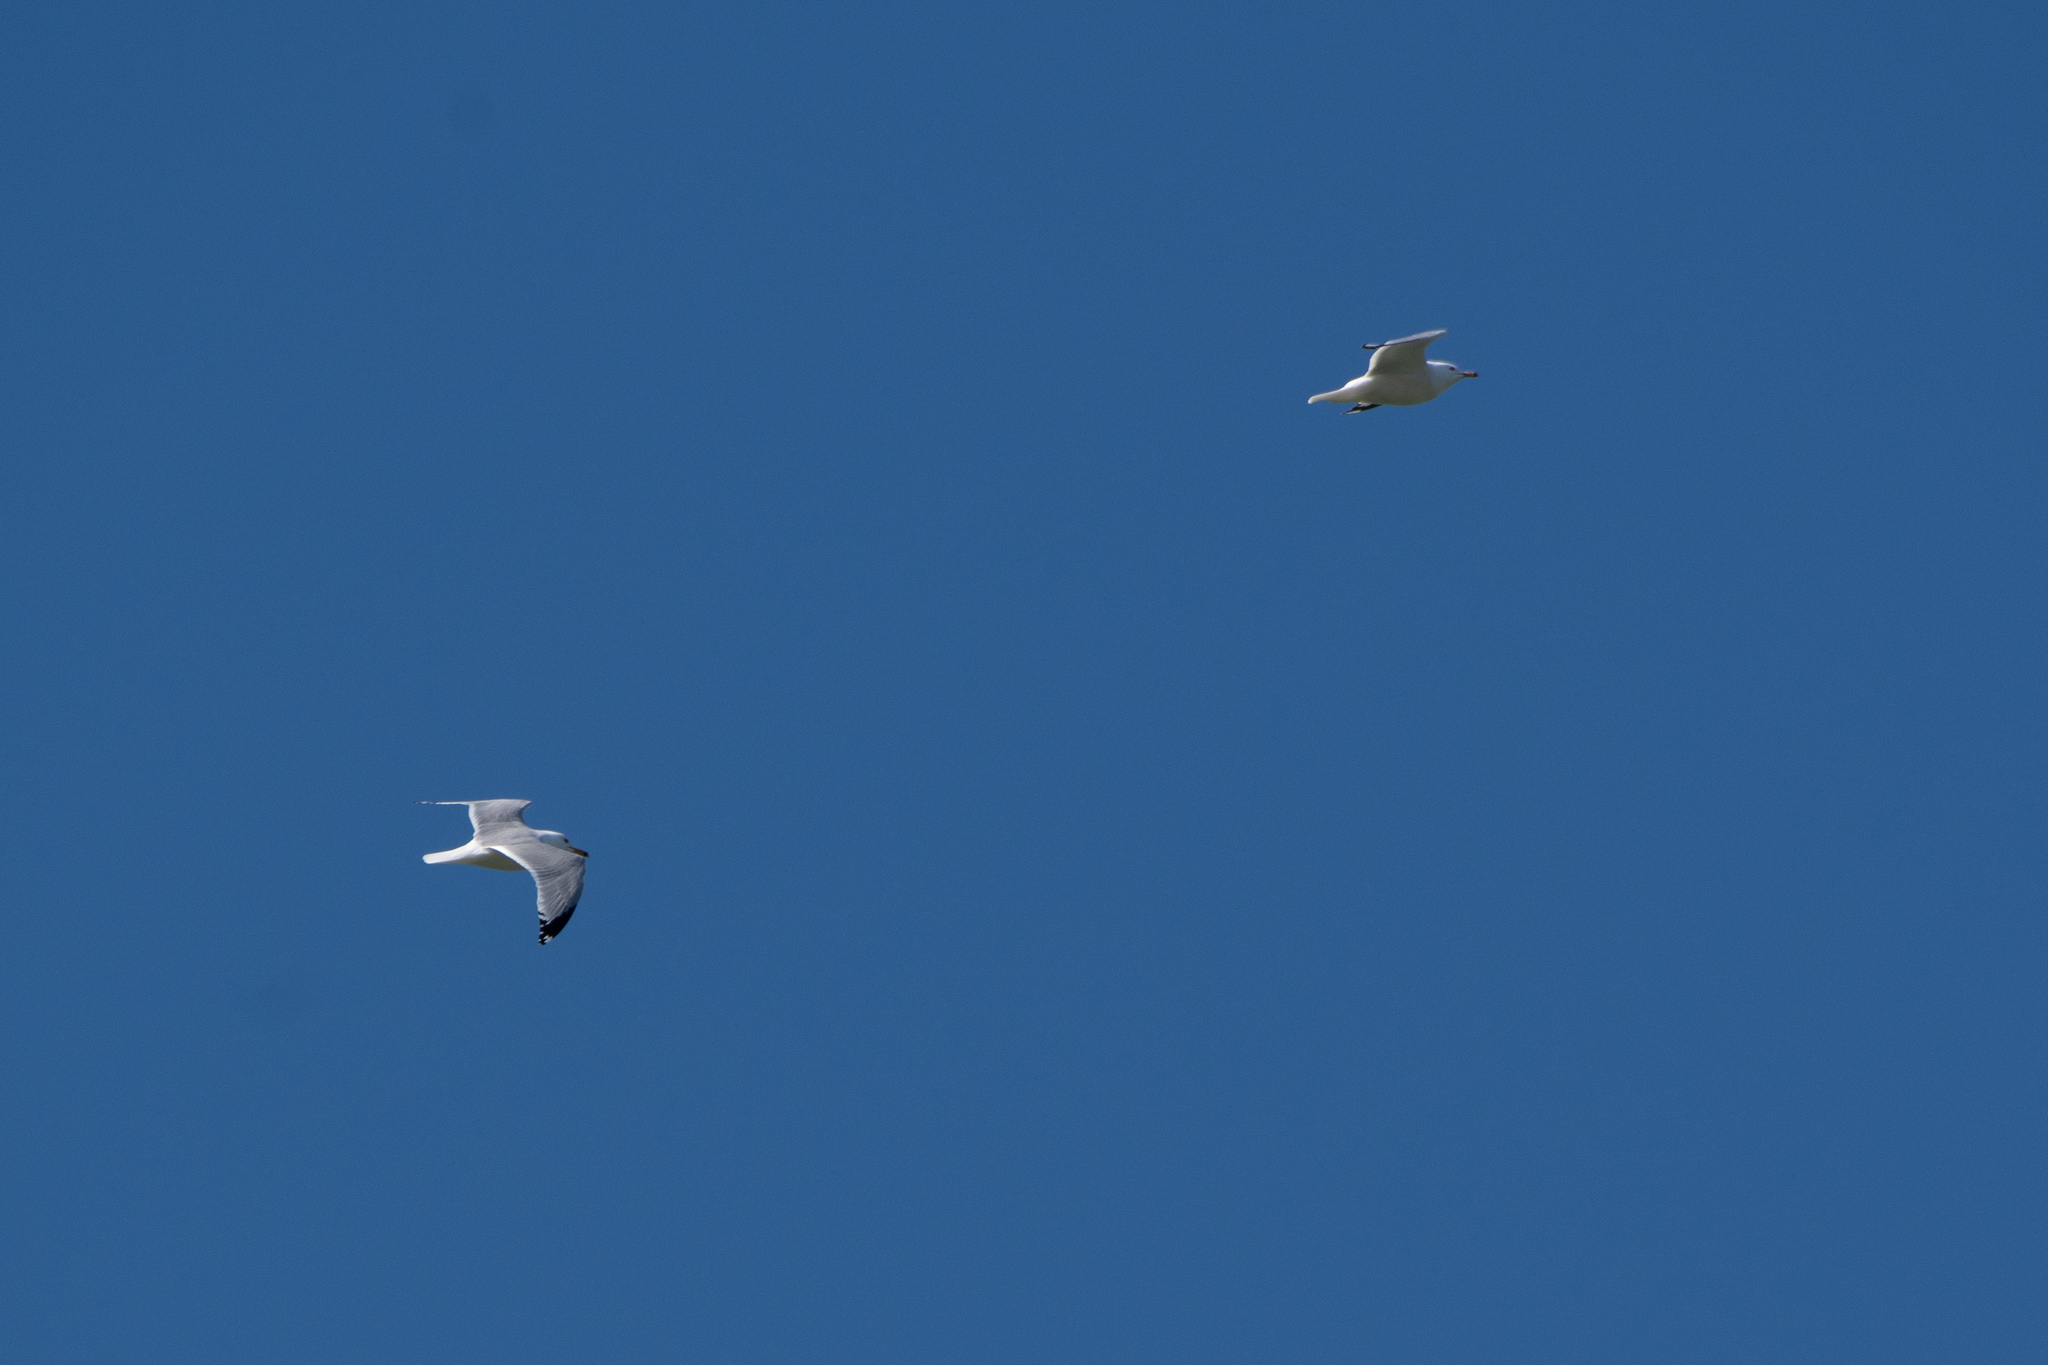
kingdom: Animalia
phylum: Chordata
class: Aves
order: Charadriiformes
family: Laridae
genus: Larus
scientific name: Larus delawarensis
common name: Ring-billed gull
